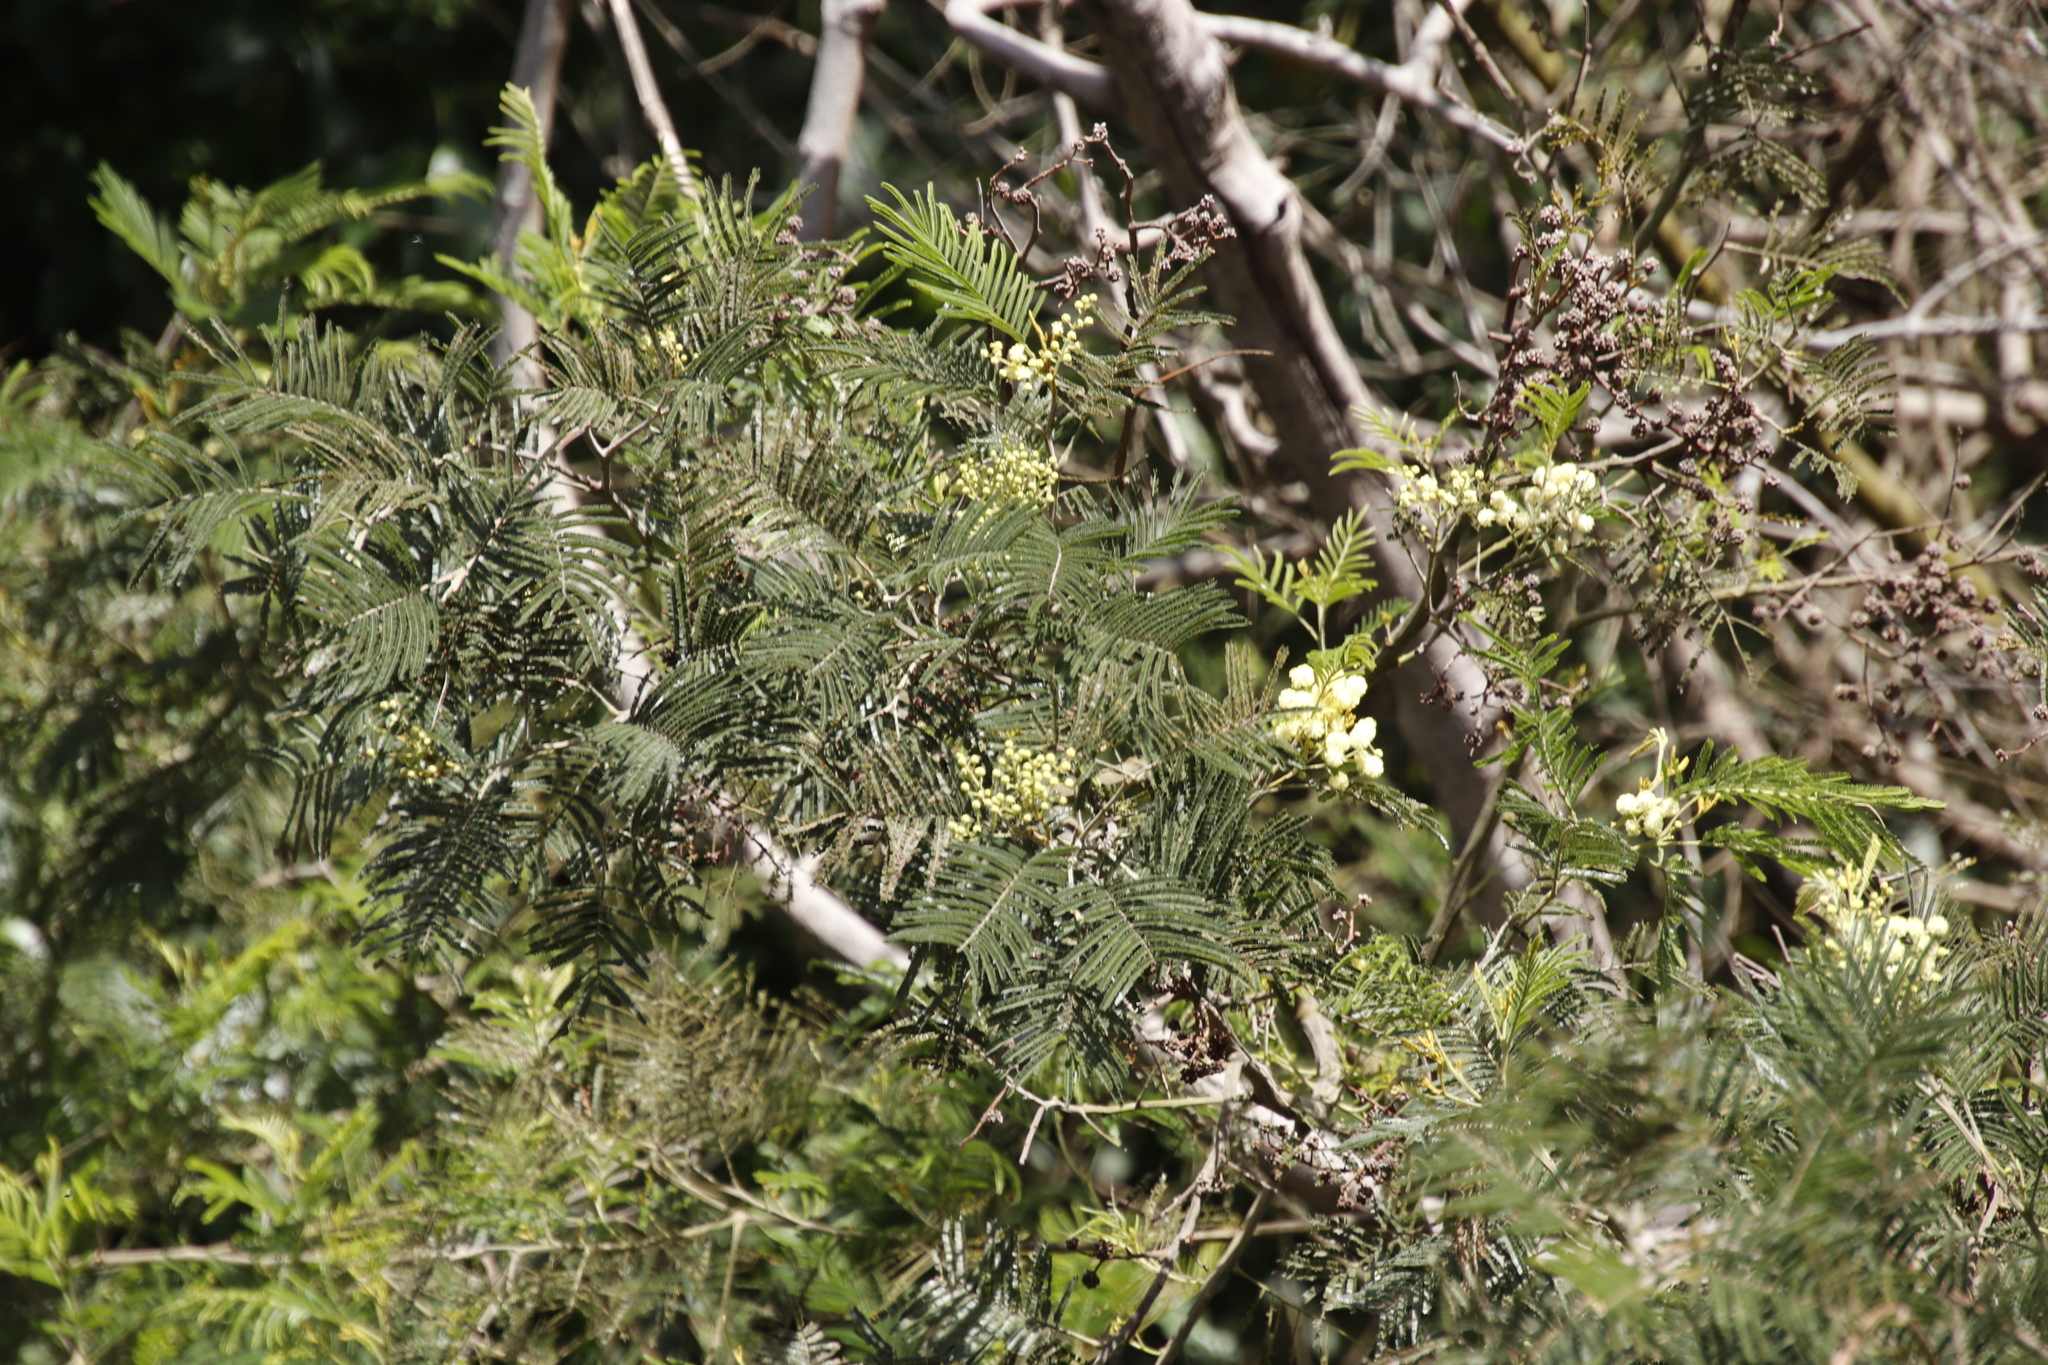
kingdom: Plantae
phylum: Tracheophyta
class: Magnoliopsida
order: Fabales
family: Fabaceae
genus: Acacia
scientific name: Acacia mearnsii
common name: Black wattle
